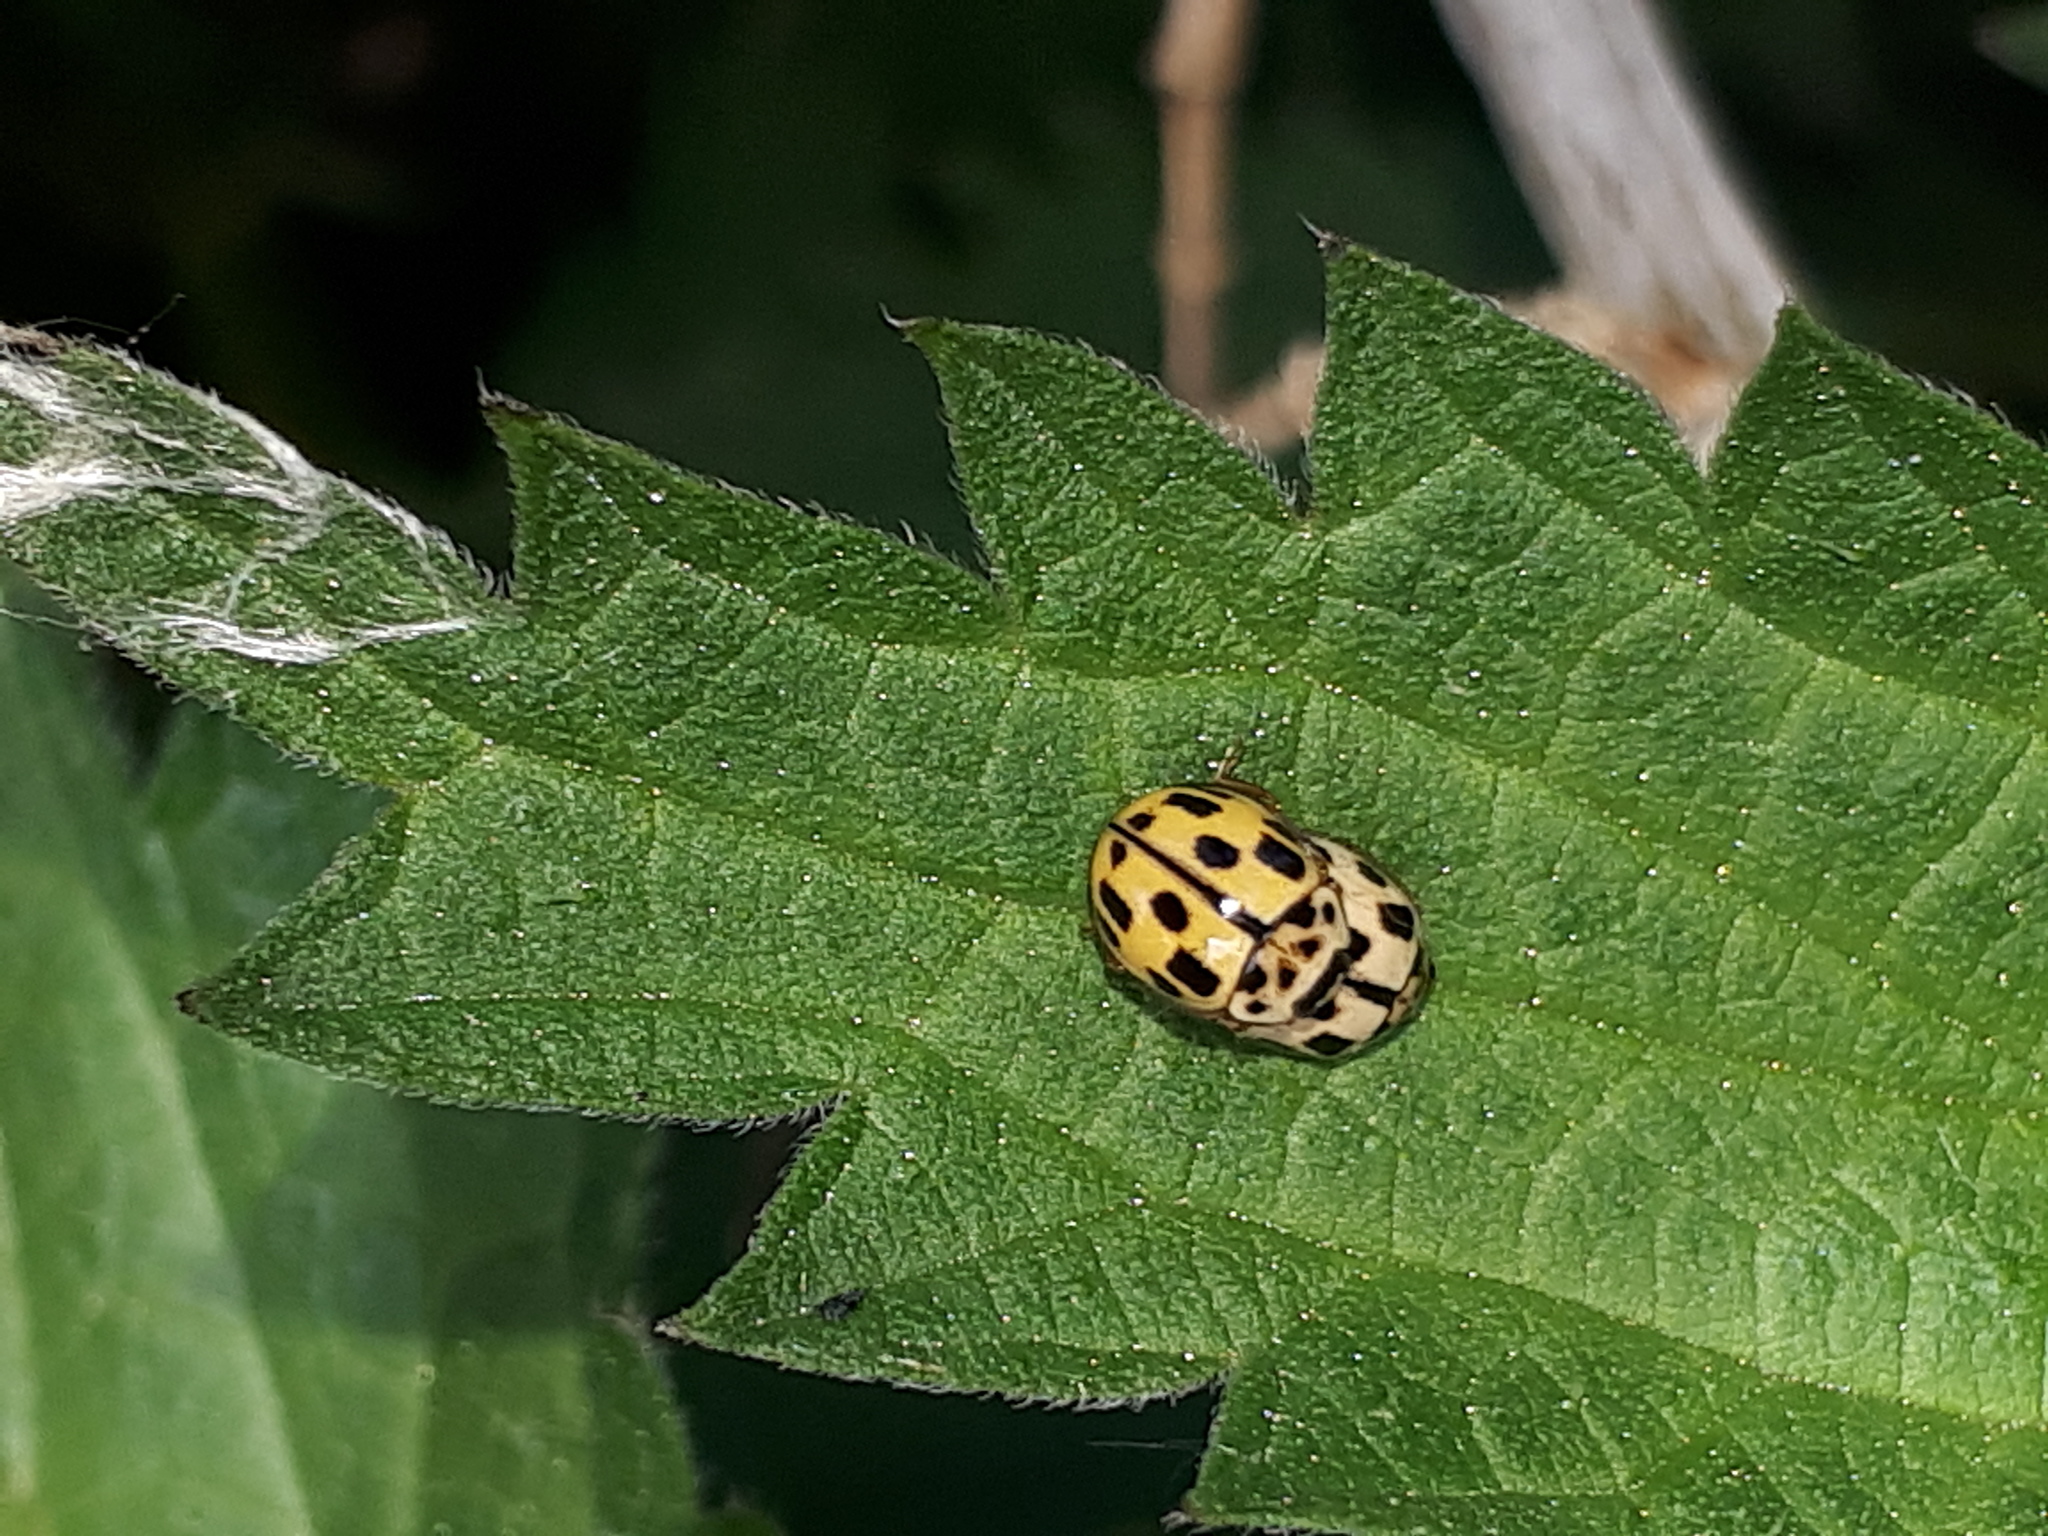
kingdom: Animalia
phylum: Arthropoda
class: Insecta
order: Coleoptera
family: Coccinellidae
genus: Propylaea
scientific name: Propylaea quatuordecimpunctata
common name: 14-spotted ladybird beetle
